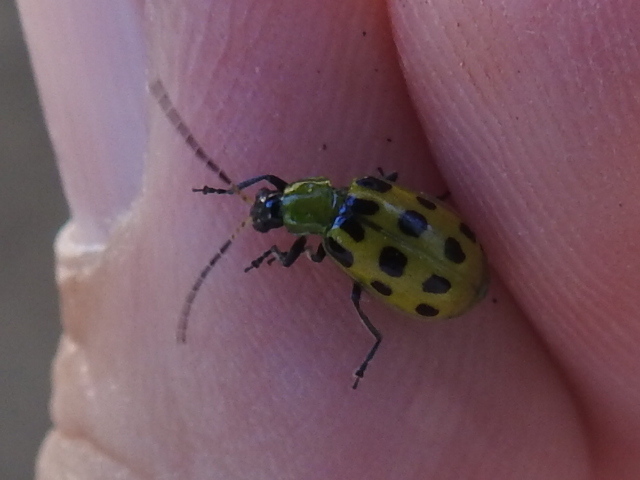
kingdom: Animalia
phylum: Arthropoda
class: Insecta
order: Coleoptera
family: Chrysomelidae
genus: Diabrotica
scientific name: Diabrotica undecimpunctata
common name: Spotted cucumber beetle
